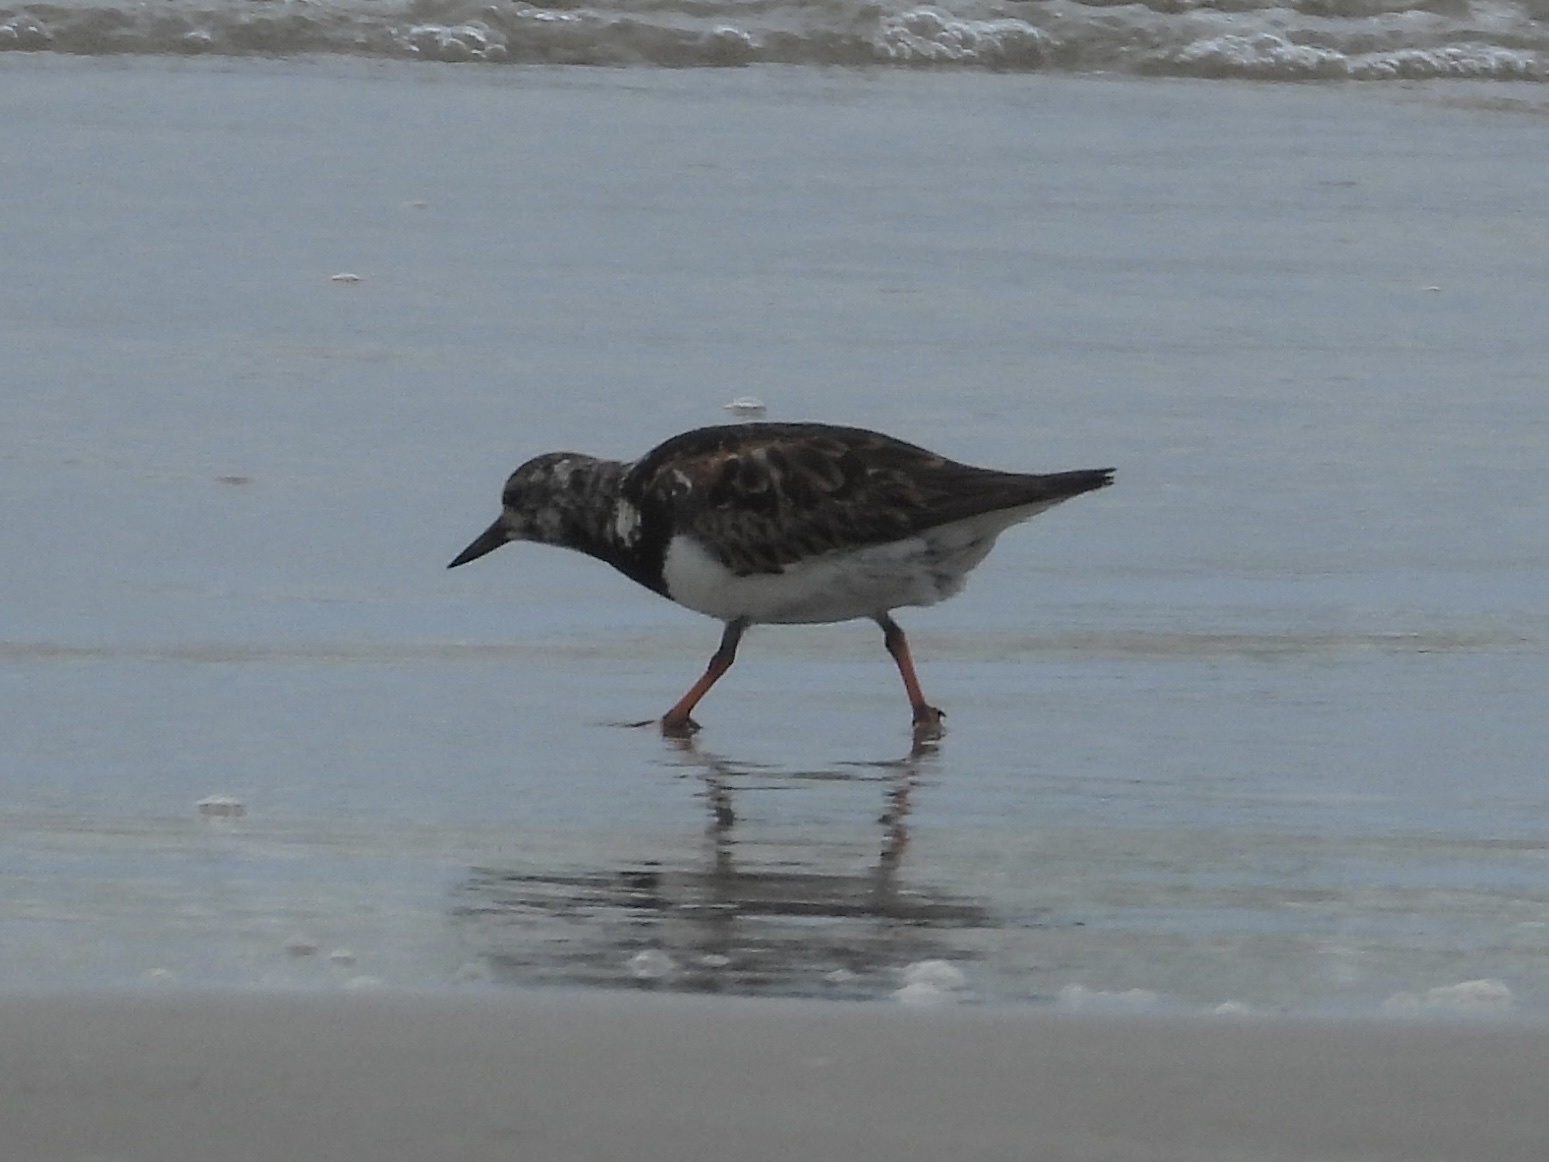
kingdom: Animalia
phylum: Chordata
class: Aves
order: Charadriiformes
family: Scolopacidae
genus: Arenaria
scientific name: Arenaria interpres
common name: Ruddy turnstone
